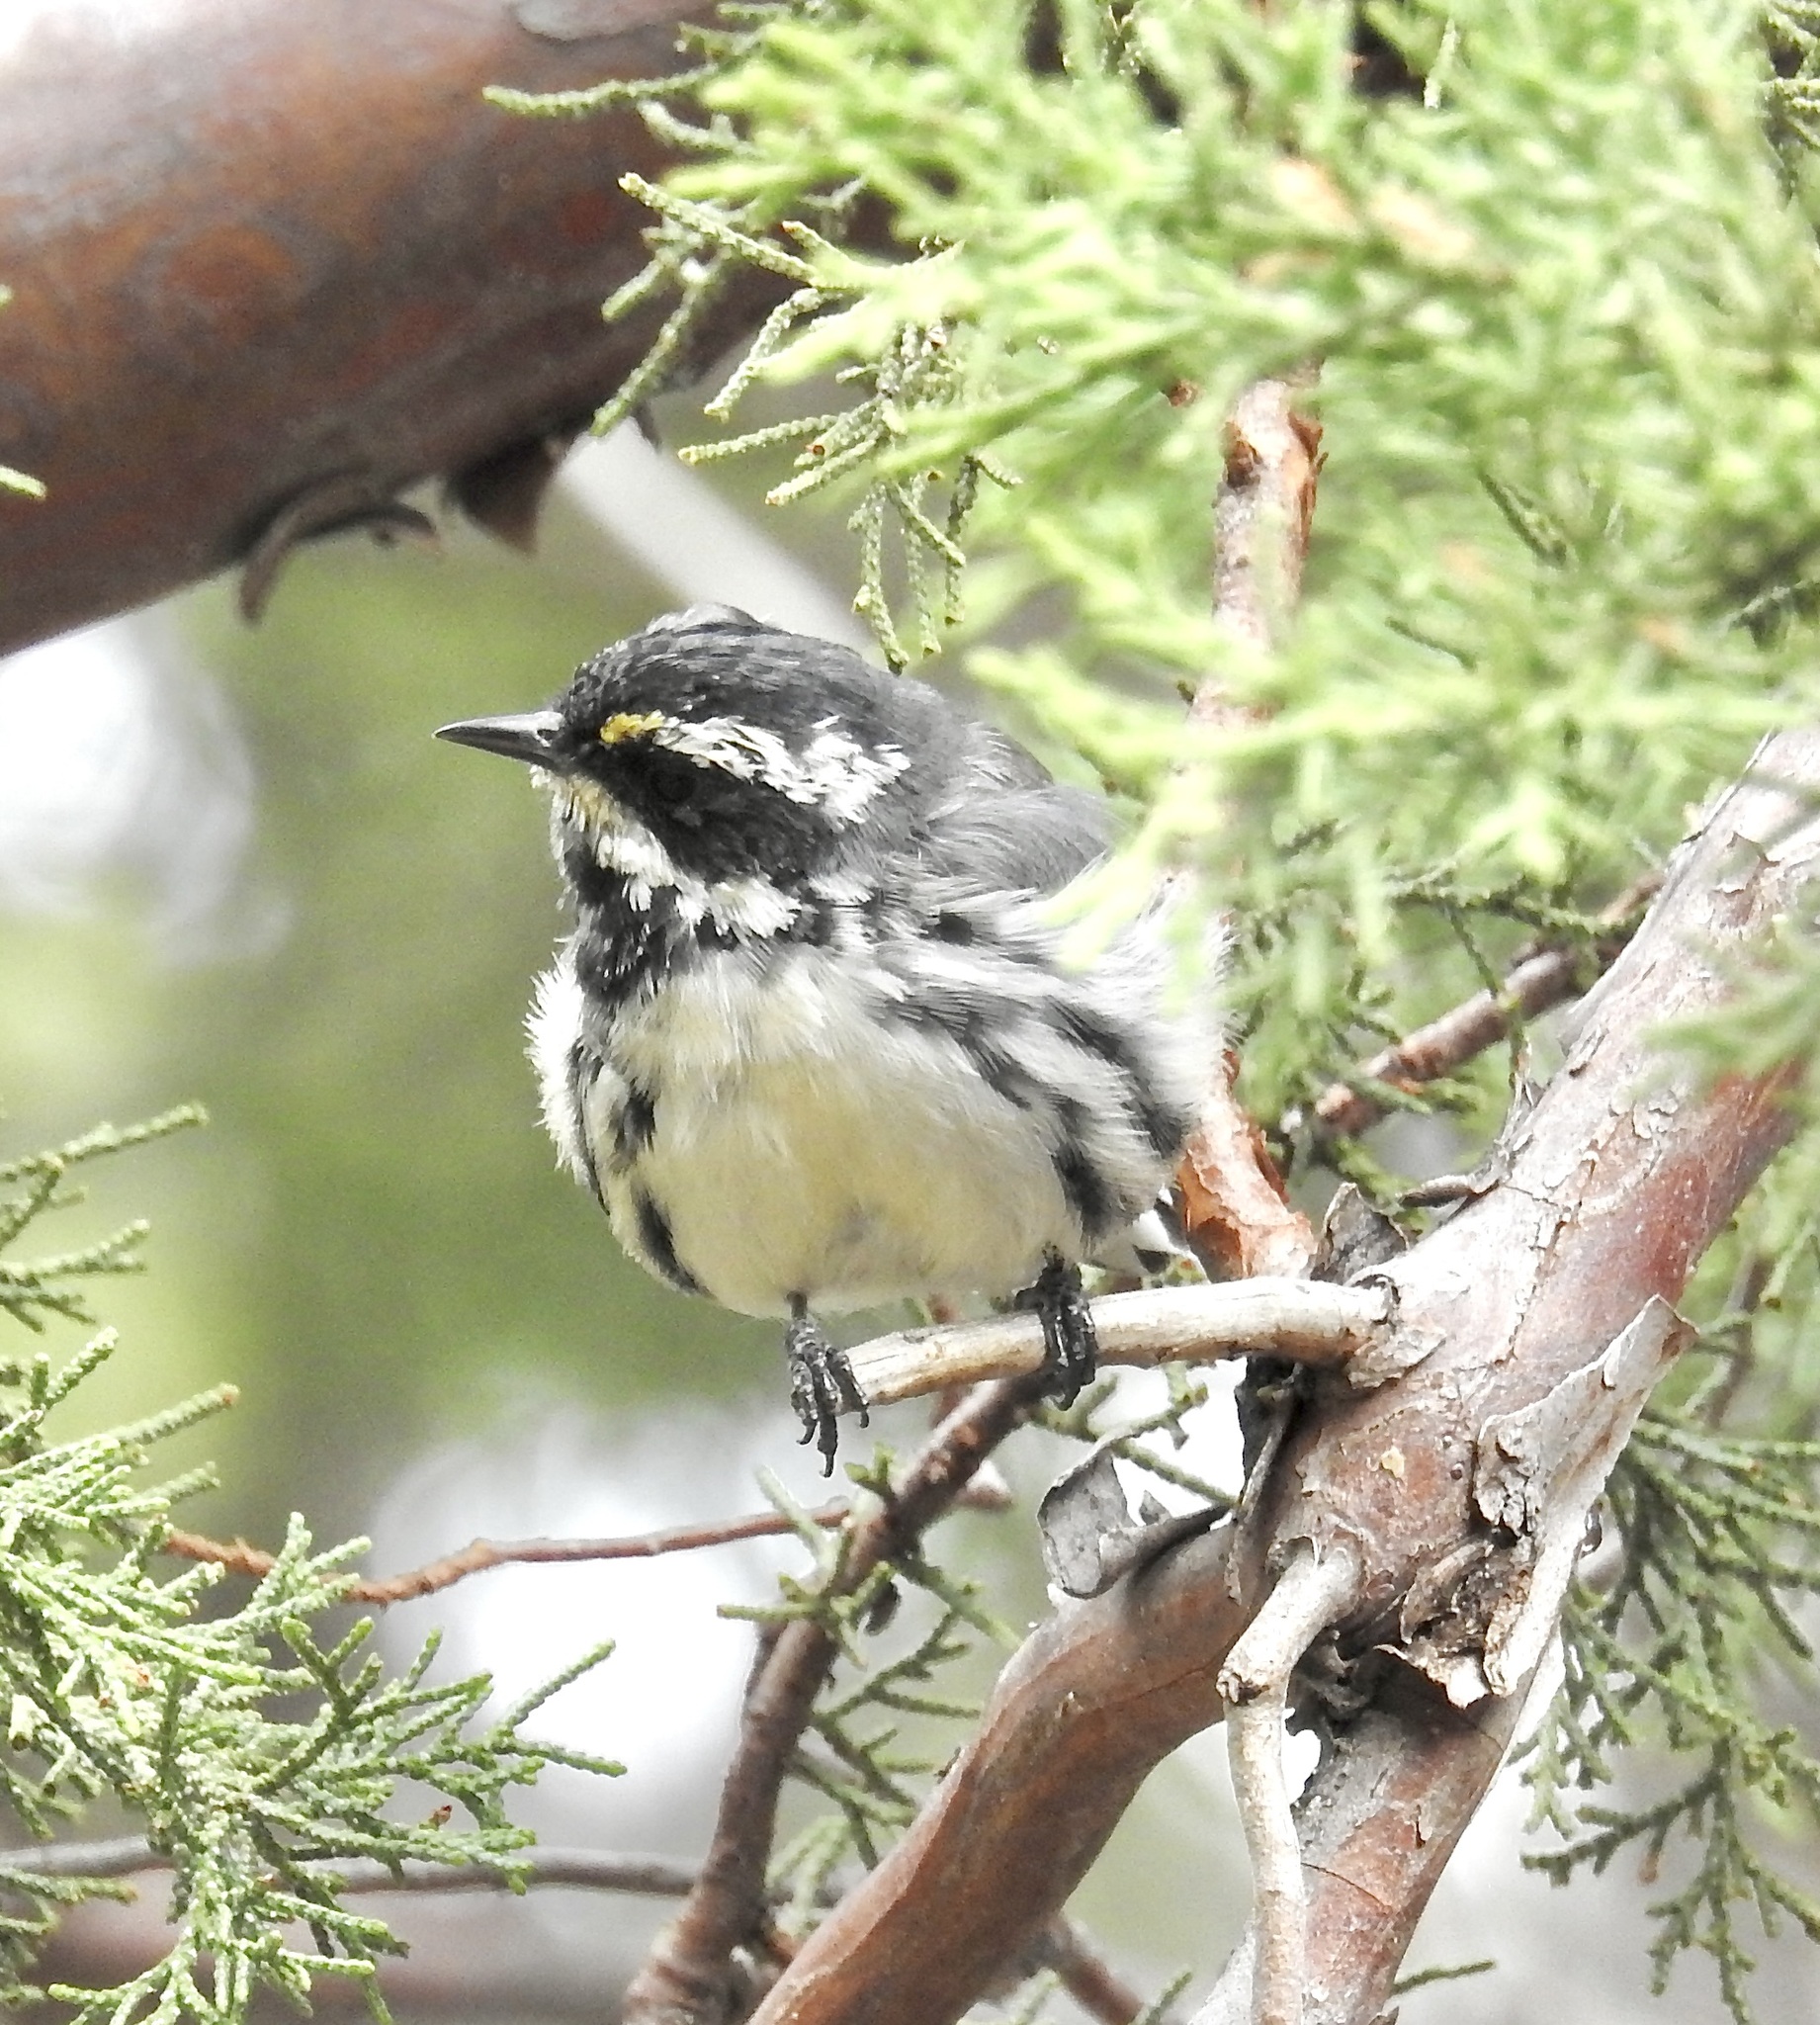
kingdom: Animalia
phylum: Chordata
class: Aves
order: Passeriformes
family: Parulidae
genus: Setophaga
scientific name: Setophaga nigrescens
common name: Black-throated gray warbler
